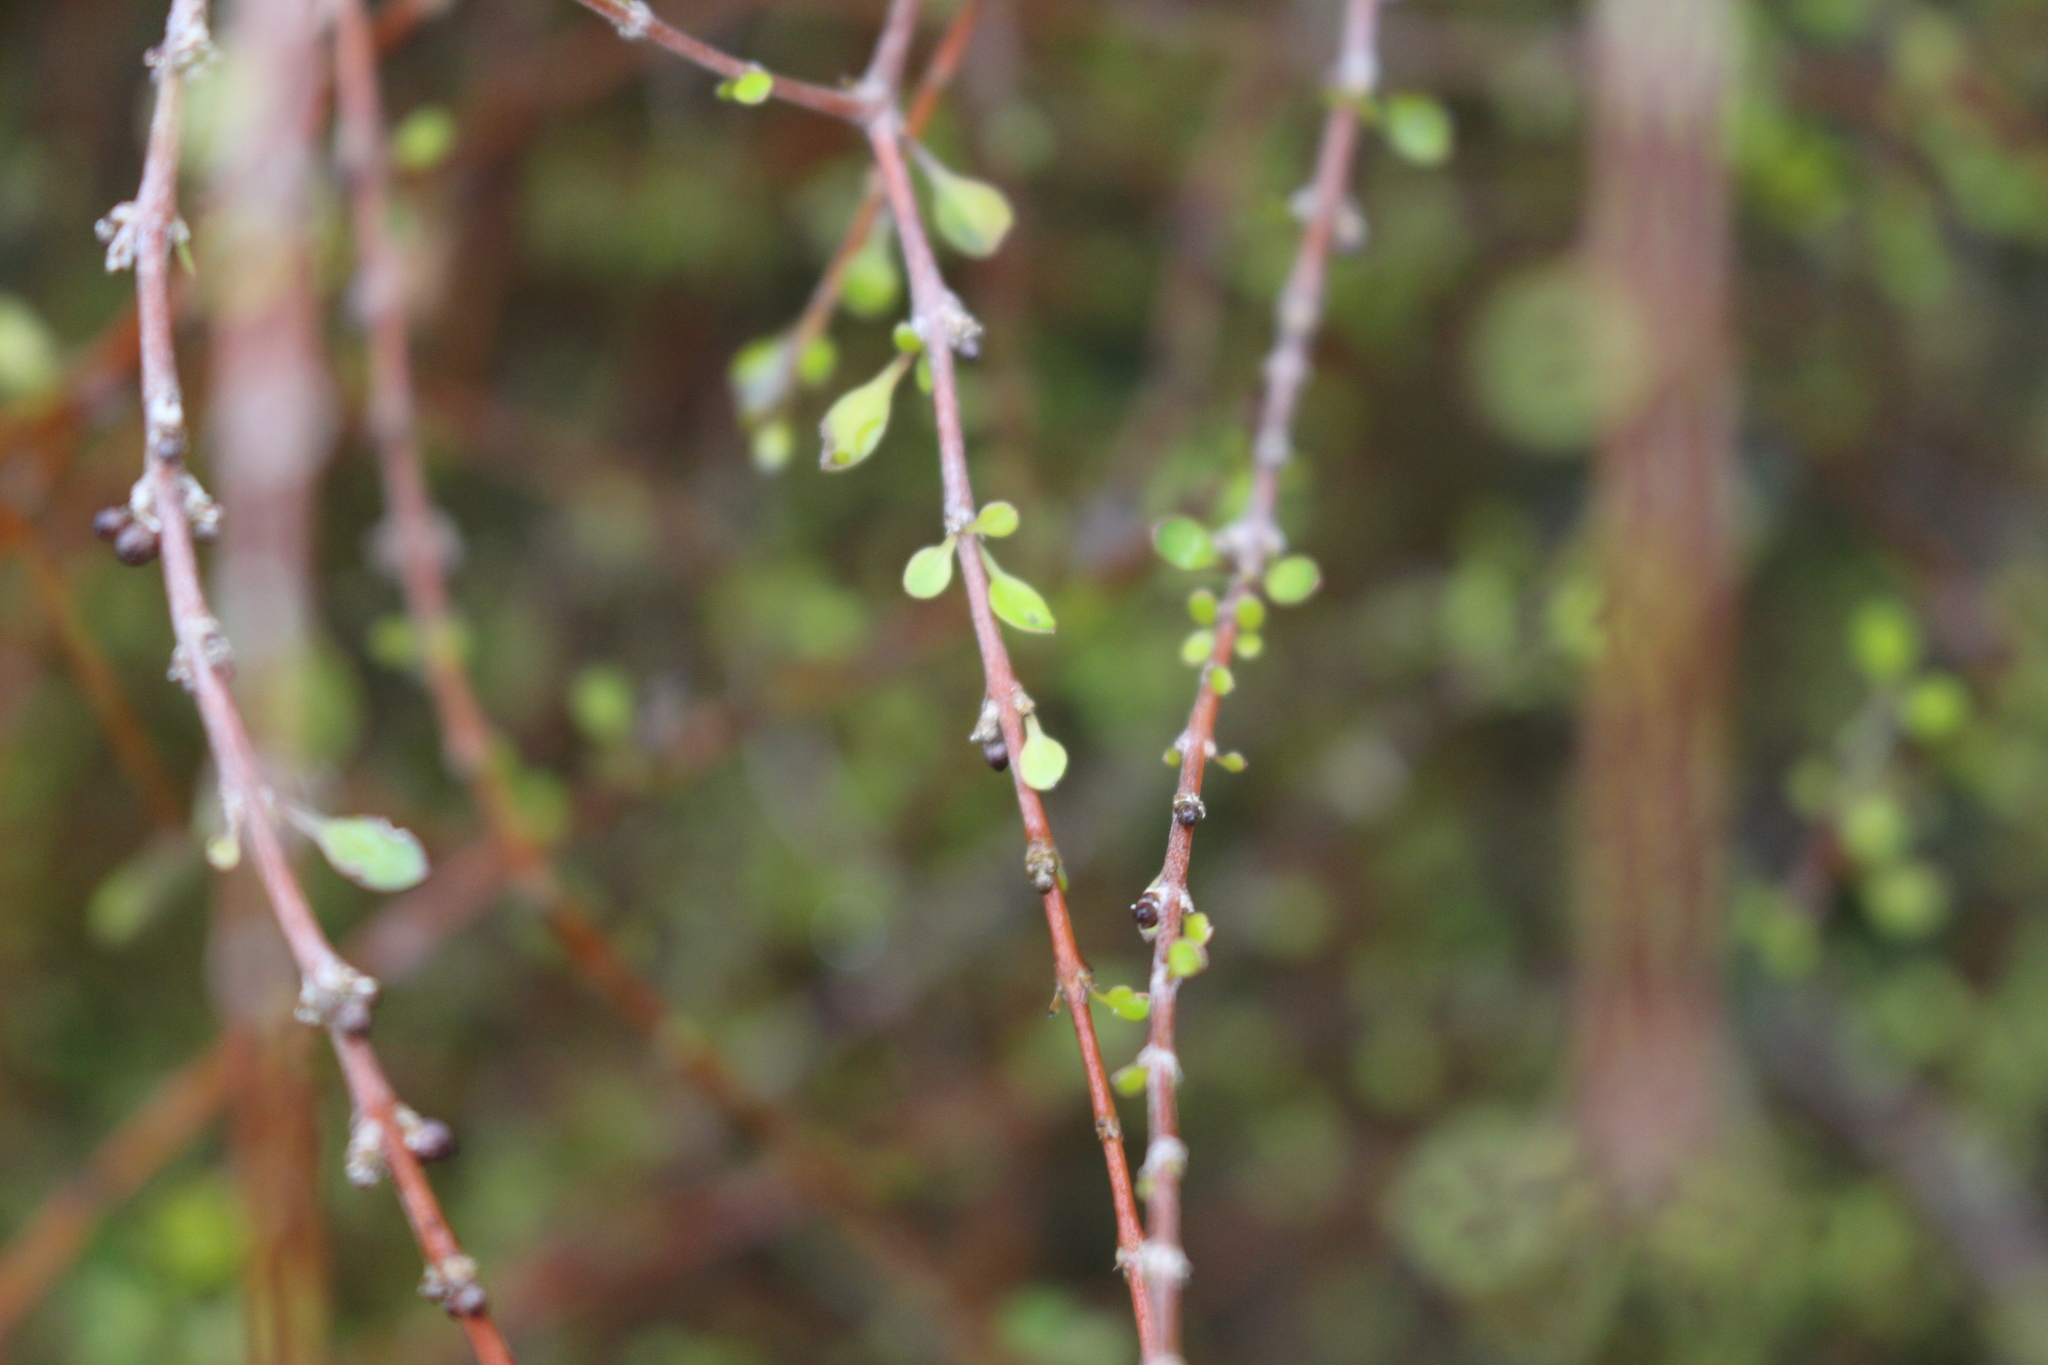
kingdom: Plantae
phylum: Tracheophyta
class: Magnoliopsida
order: Gentianales
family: Rubiaceae
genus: Coprosma
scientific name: Coprosma virescens
